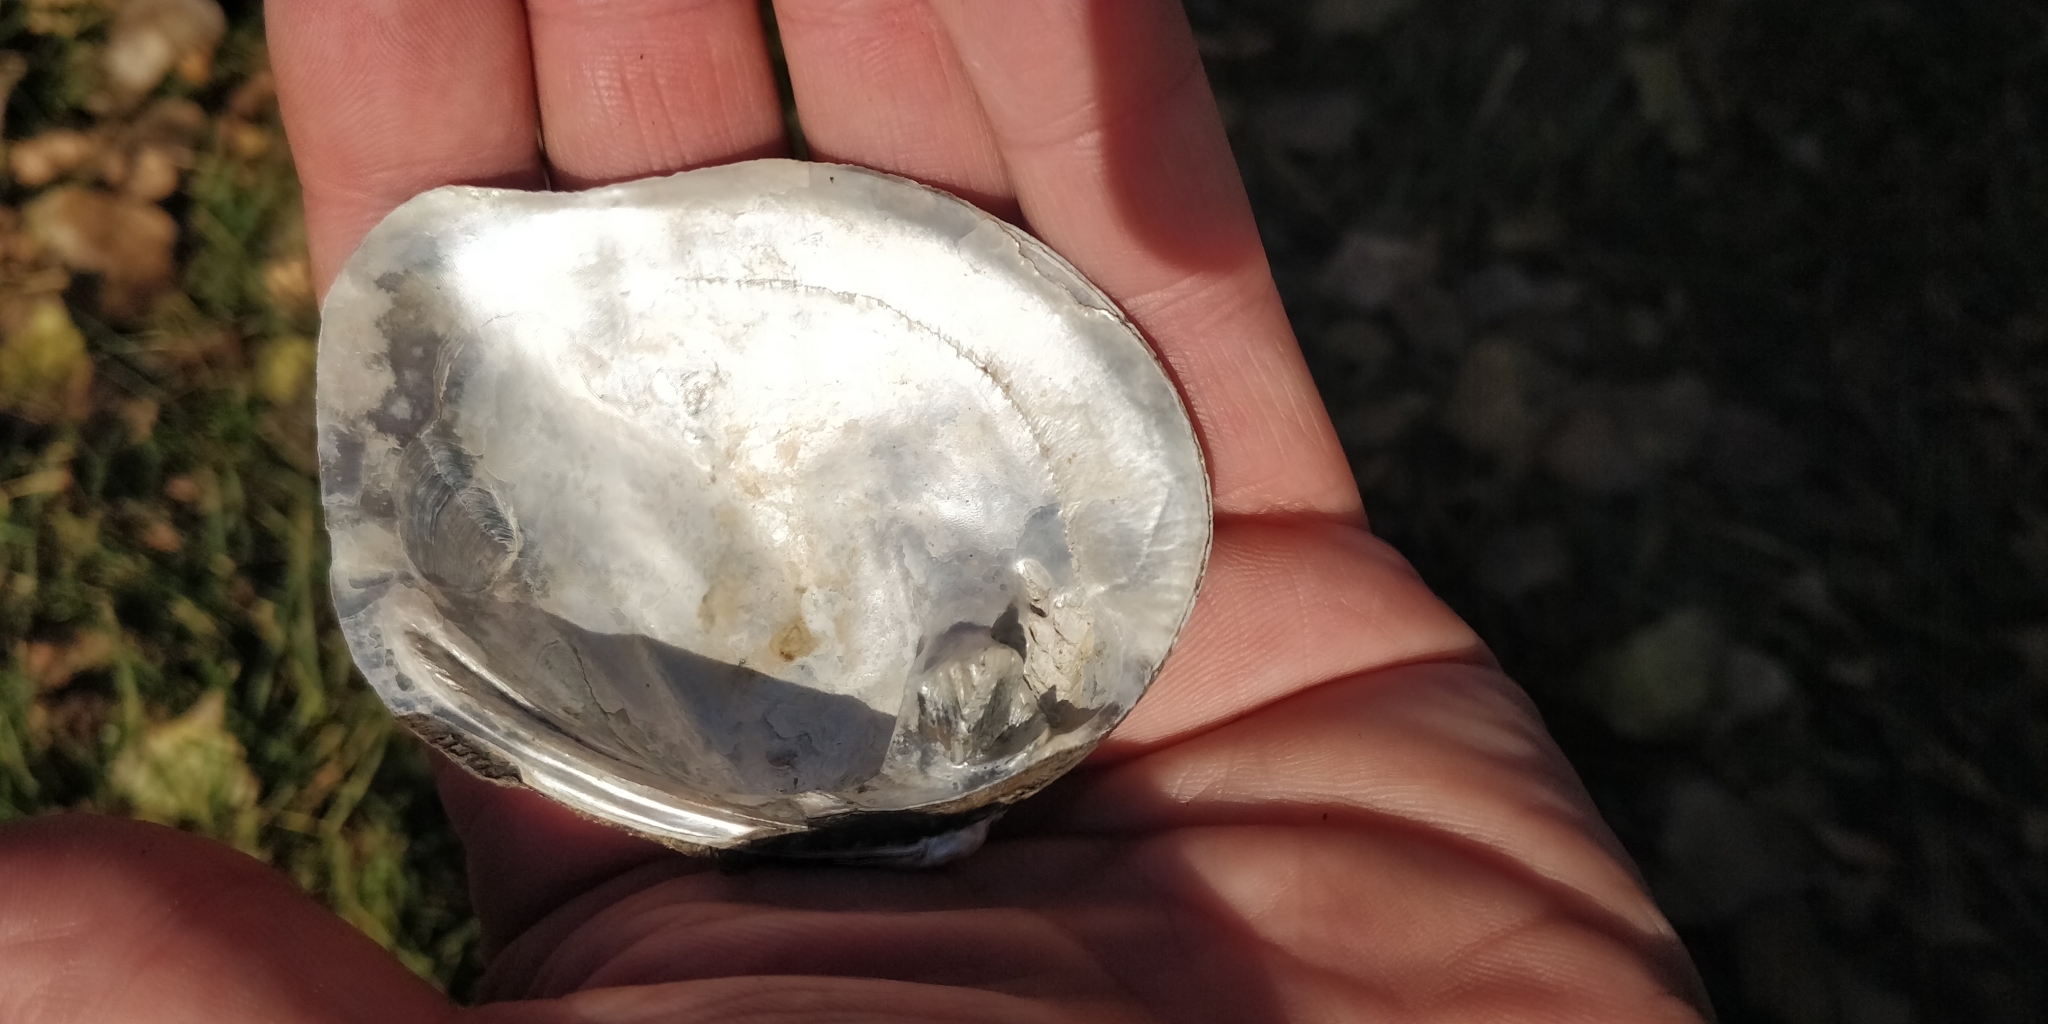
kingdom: Animalia
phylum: Mollusca
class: Bivalvia
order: Unionida
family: Unionidae
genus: Quadrula
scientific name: Quadrula quadrula
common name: Mapleleaf
